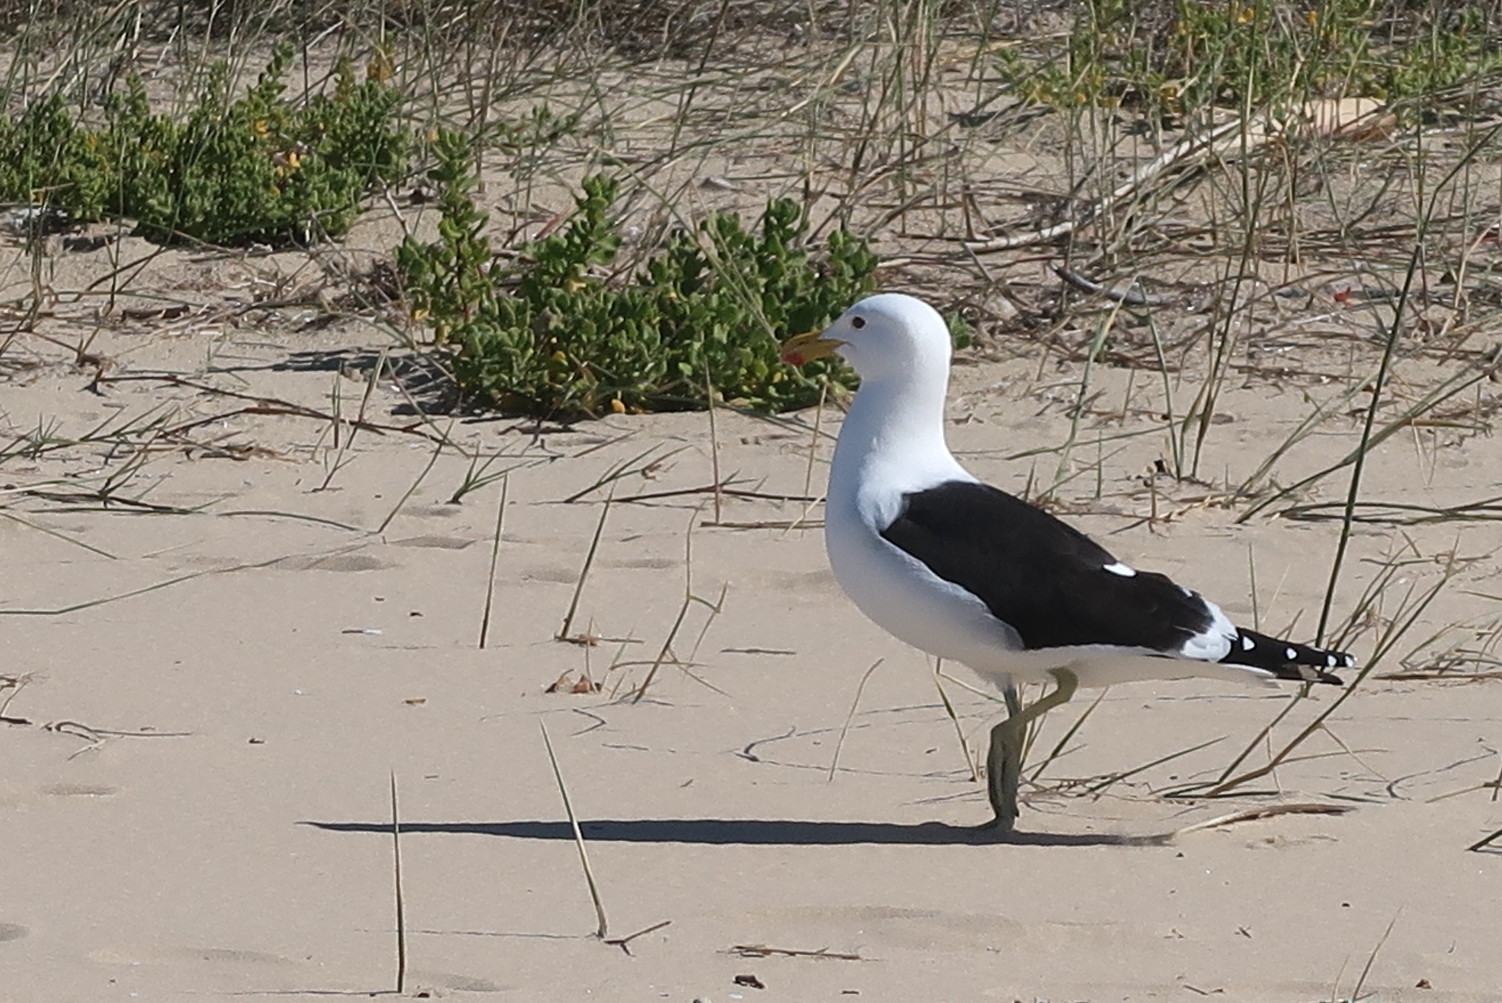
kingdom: Animalia
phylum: Chordata
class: Aves
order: Charadriiformes
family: Laridae
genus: Larus
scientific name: Larus dominicanus
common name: Kelp gull
